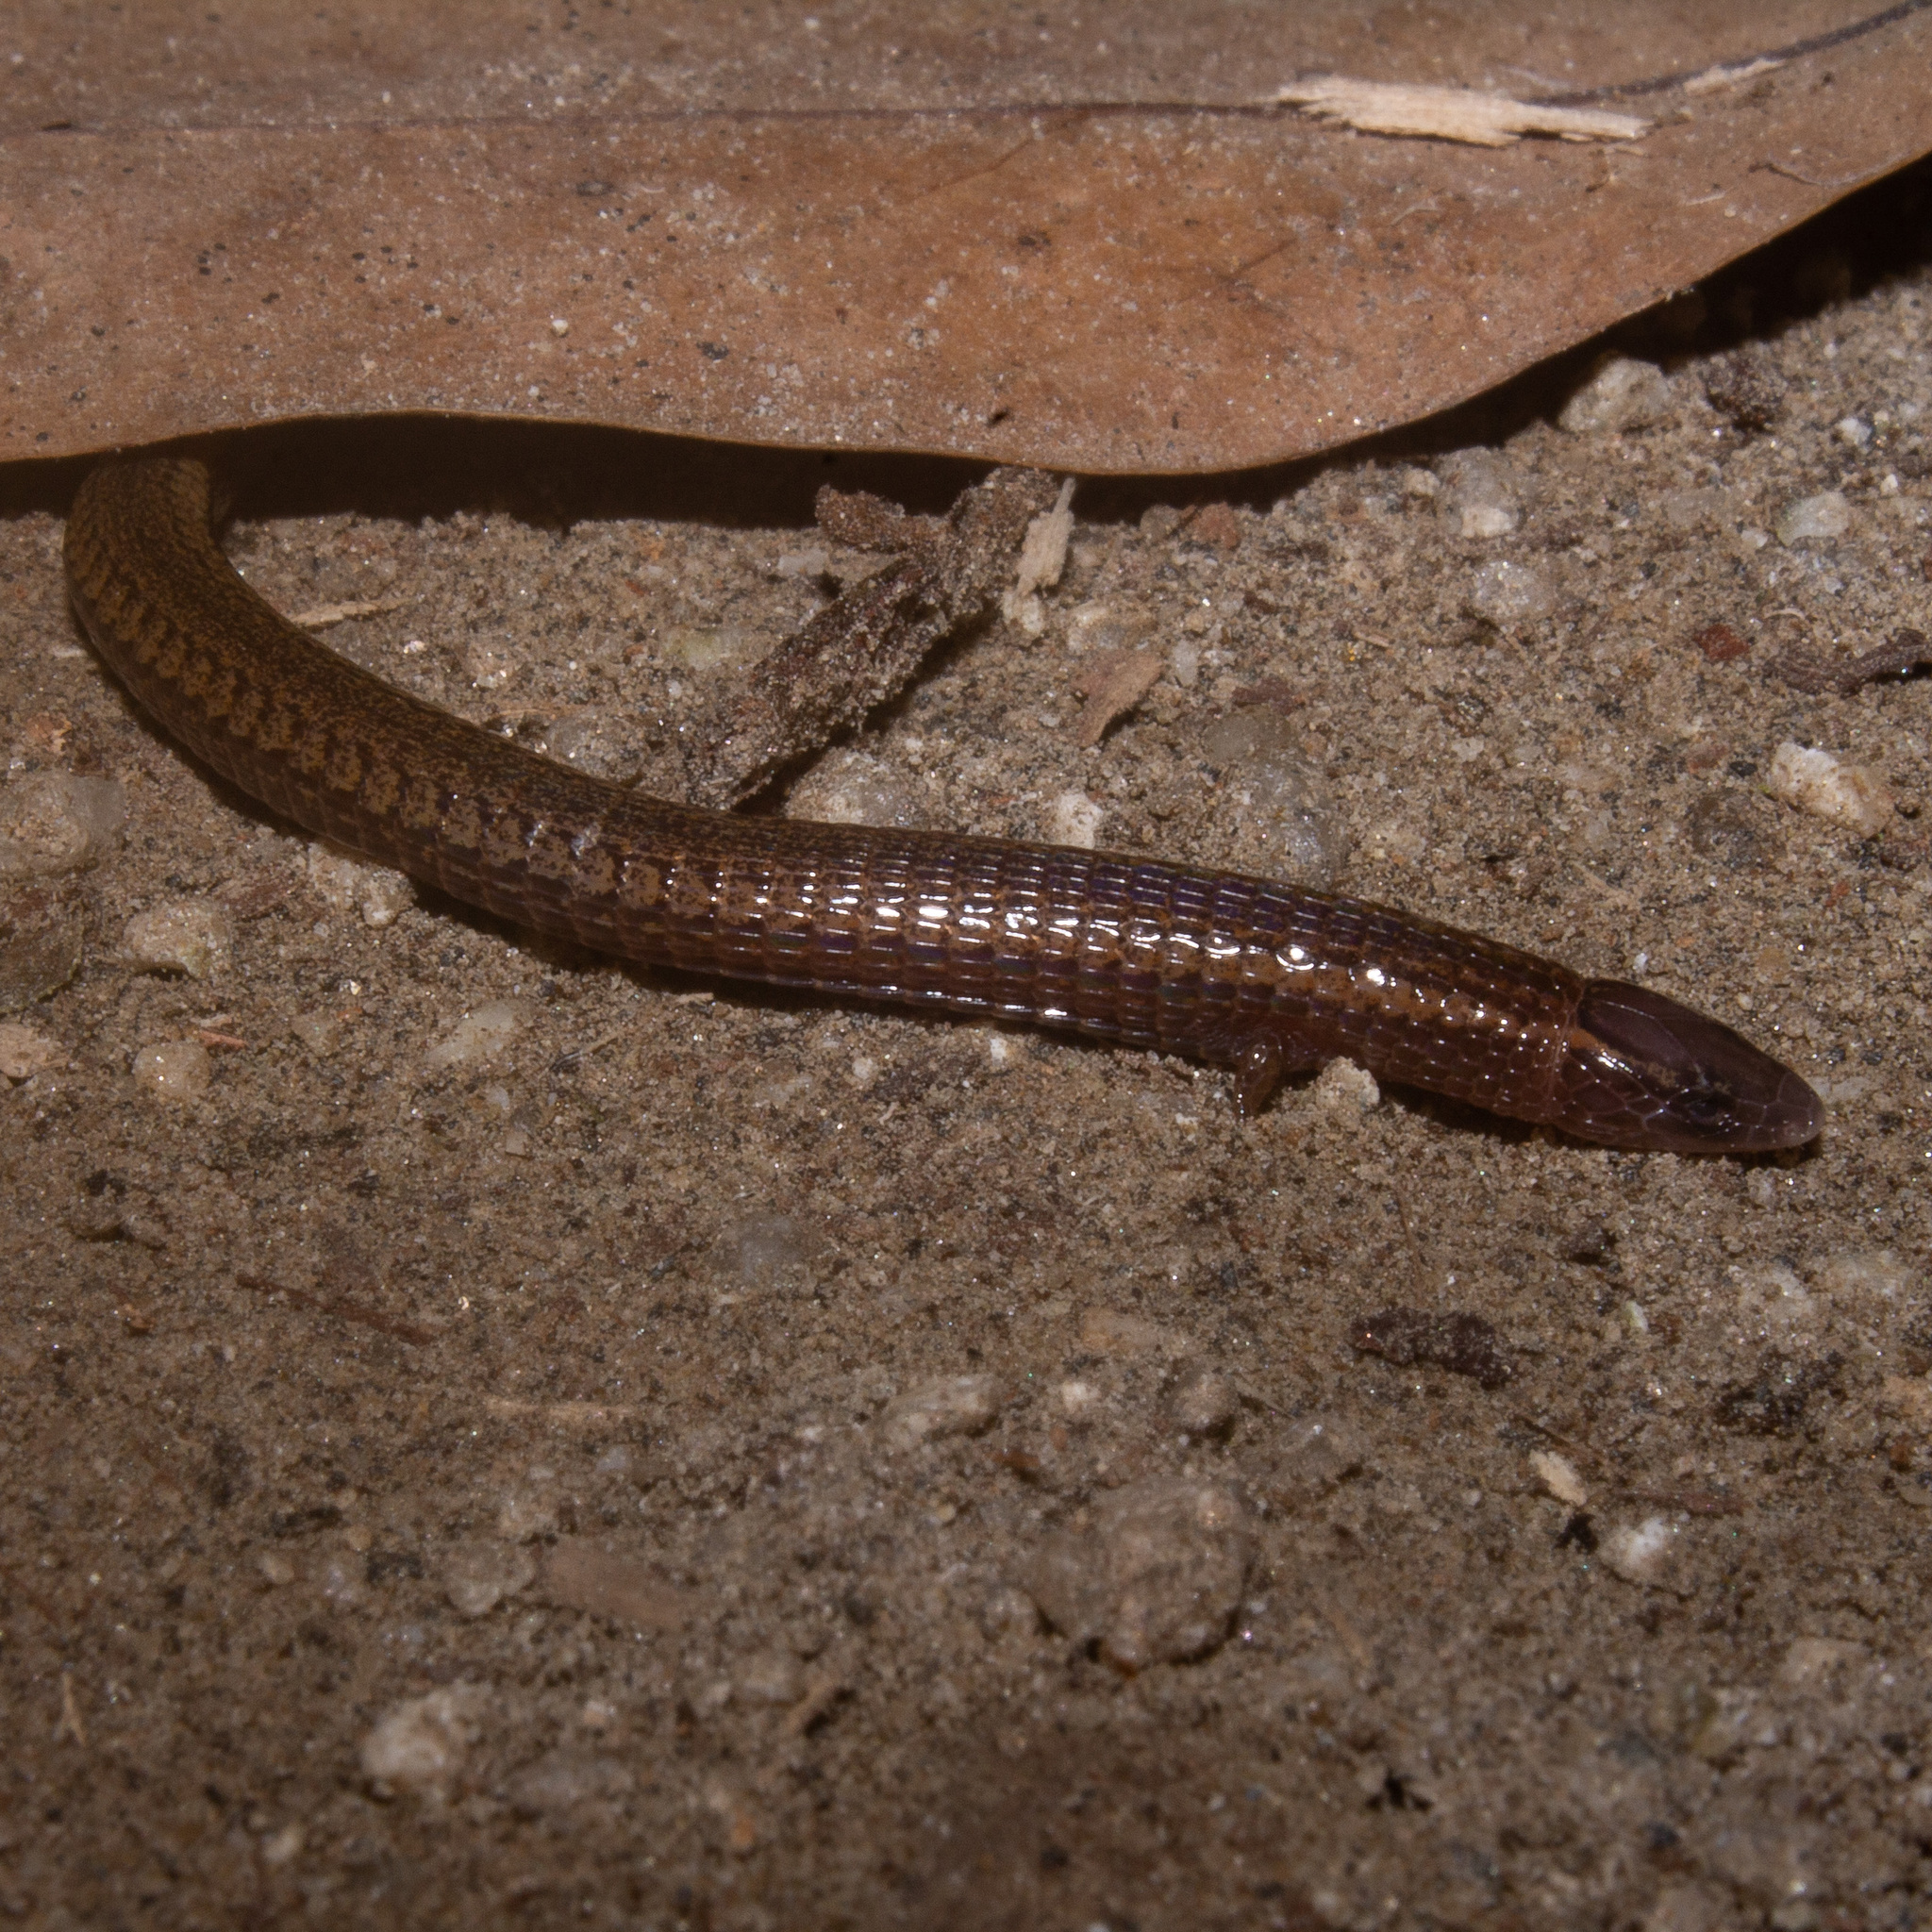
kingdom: Animalia
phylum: Chordata
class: Squamata
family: Gymnophthalmidae
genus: Bachia
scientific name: Bachia bicolor
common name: Two-colored bachia
